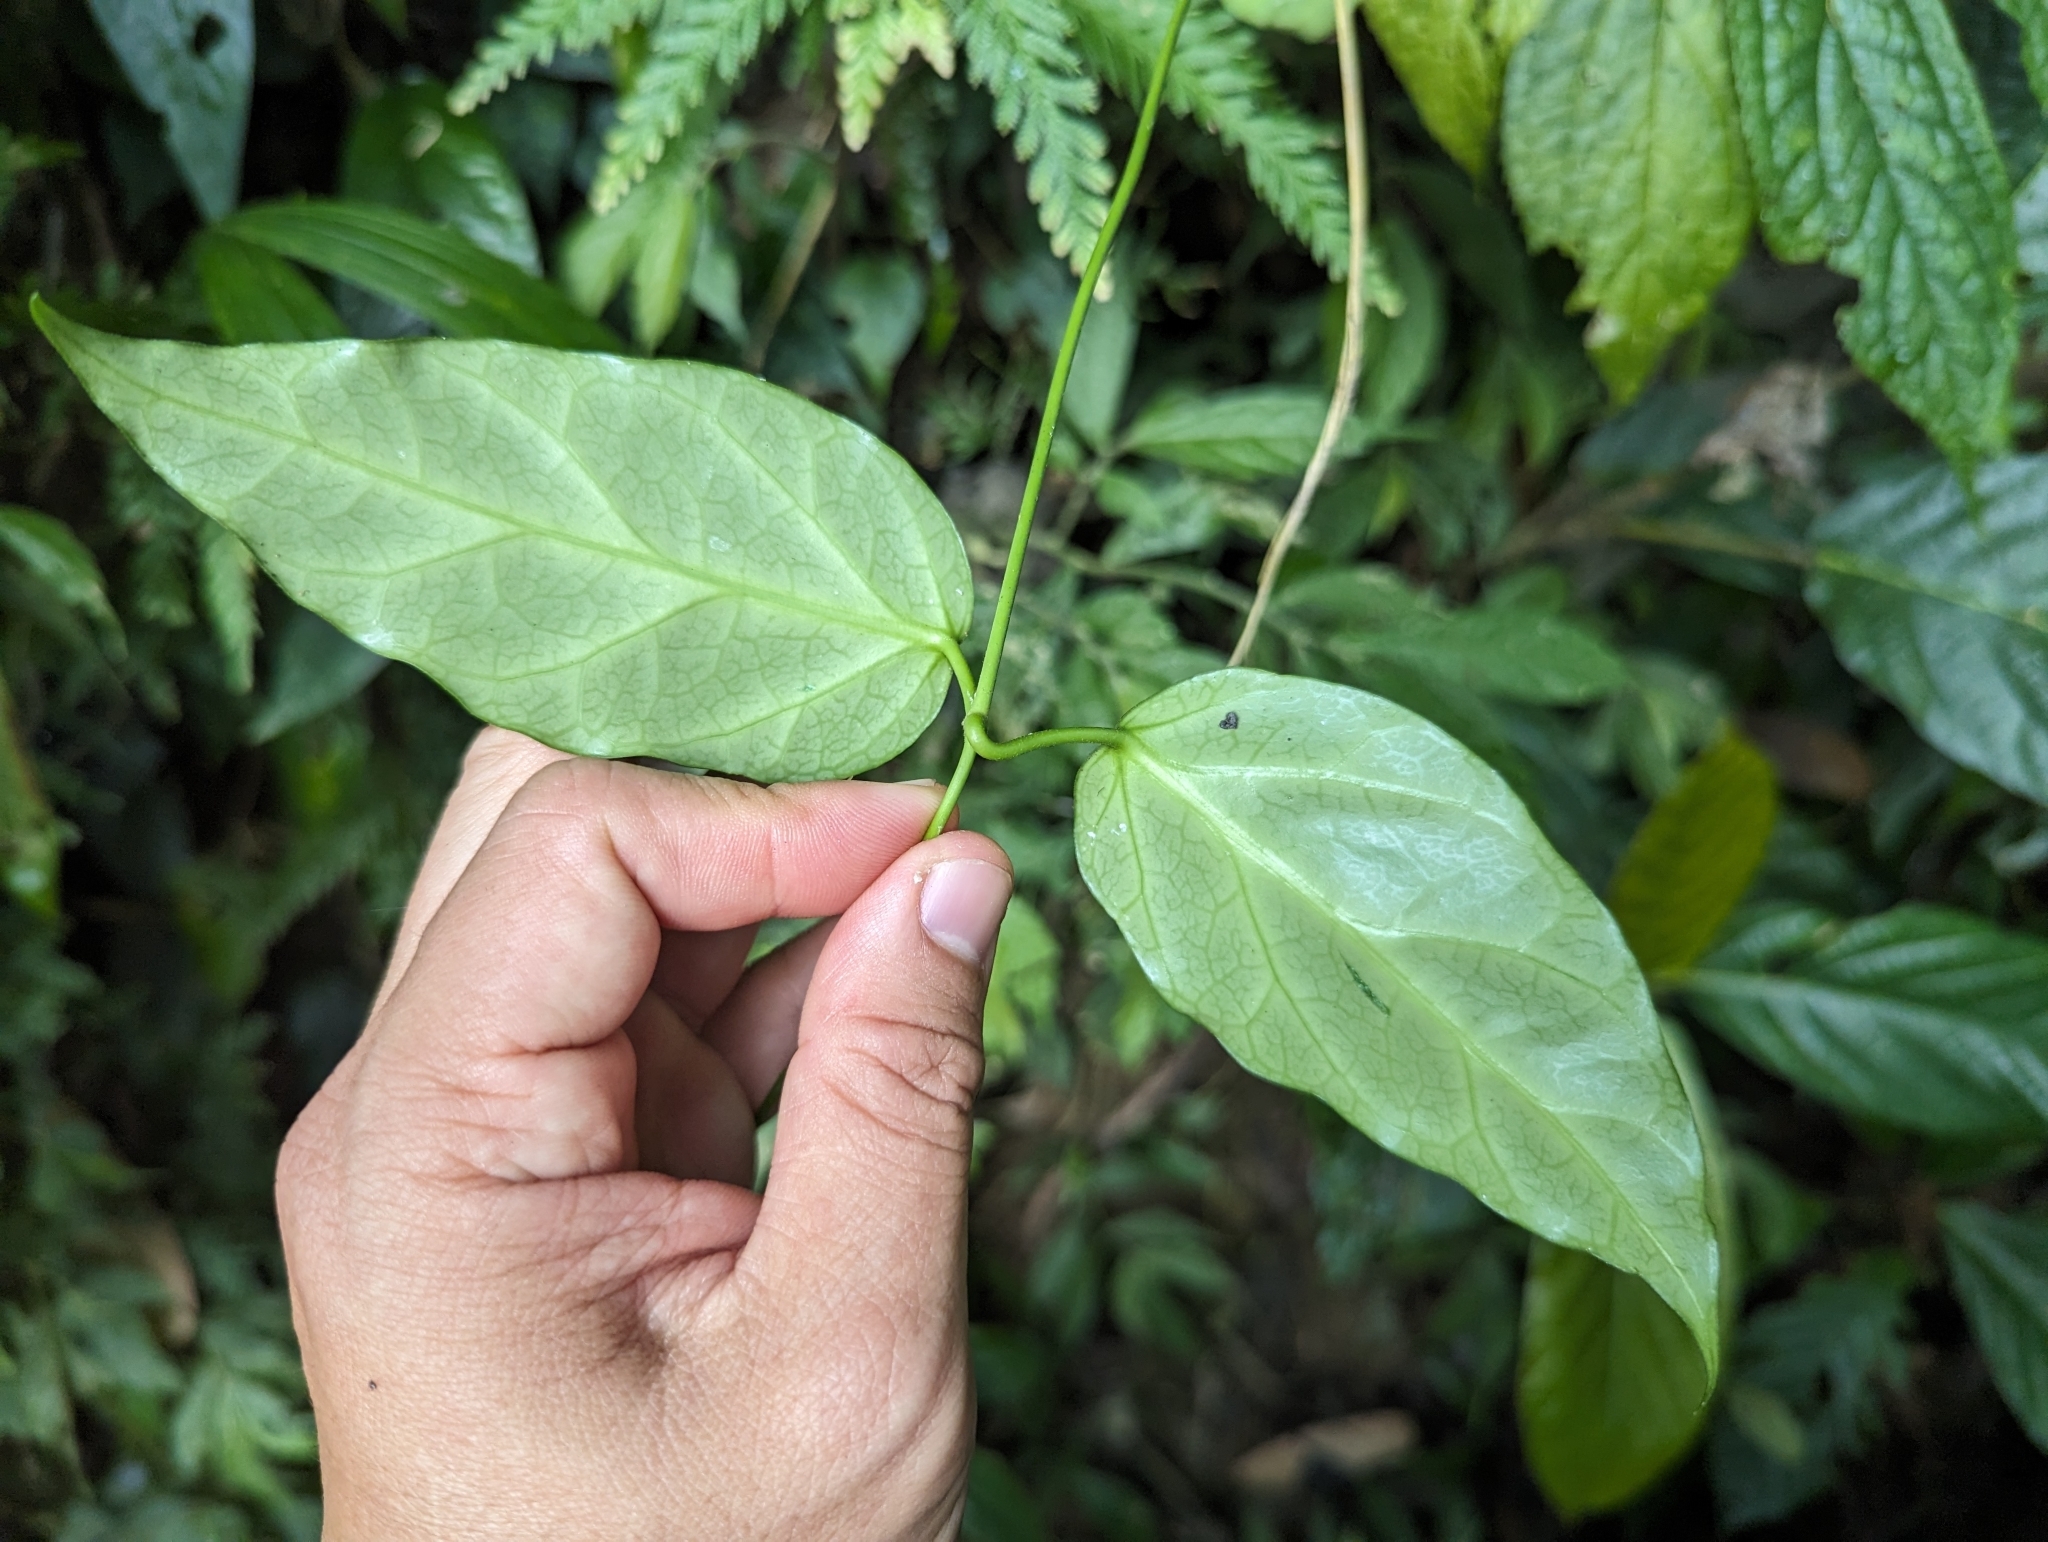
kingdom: Plantae
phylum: Tracheophyta
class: Magnoliopsida
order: Gentianales
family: Apocynaceae
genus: Sinomarsdenia
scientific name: Sinomarsdenia formosana
